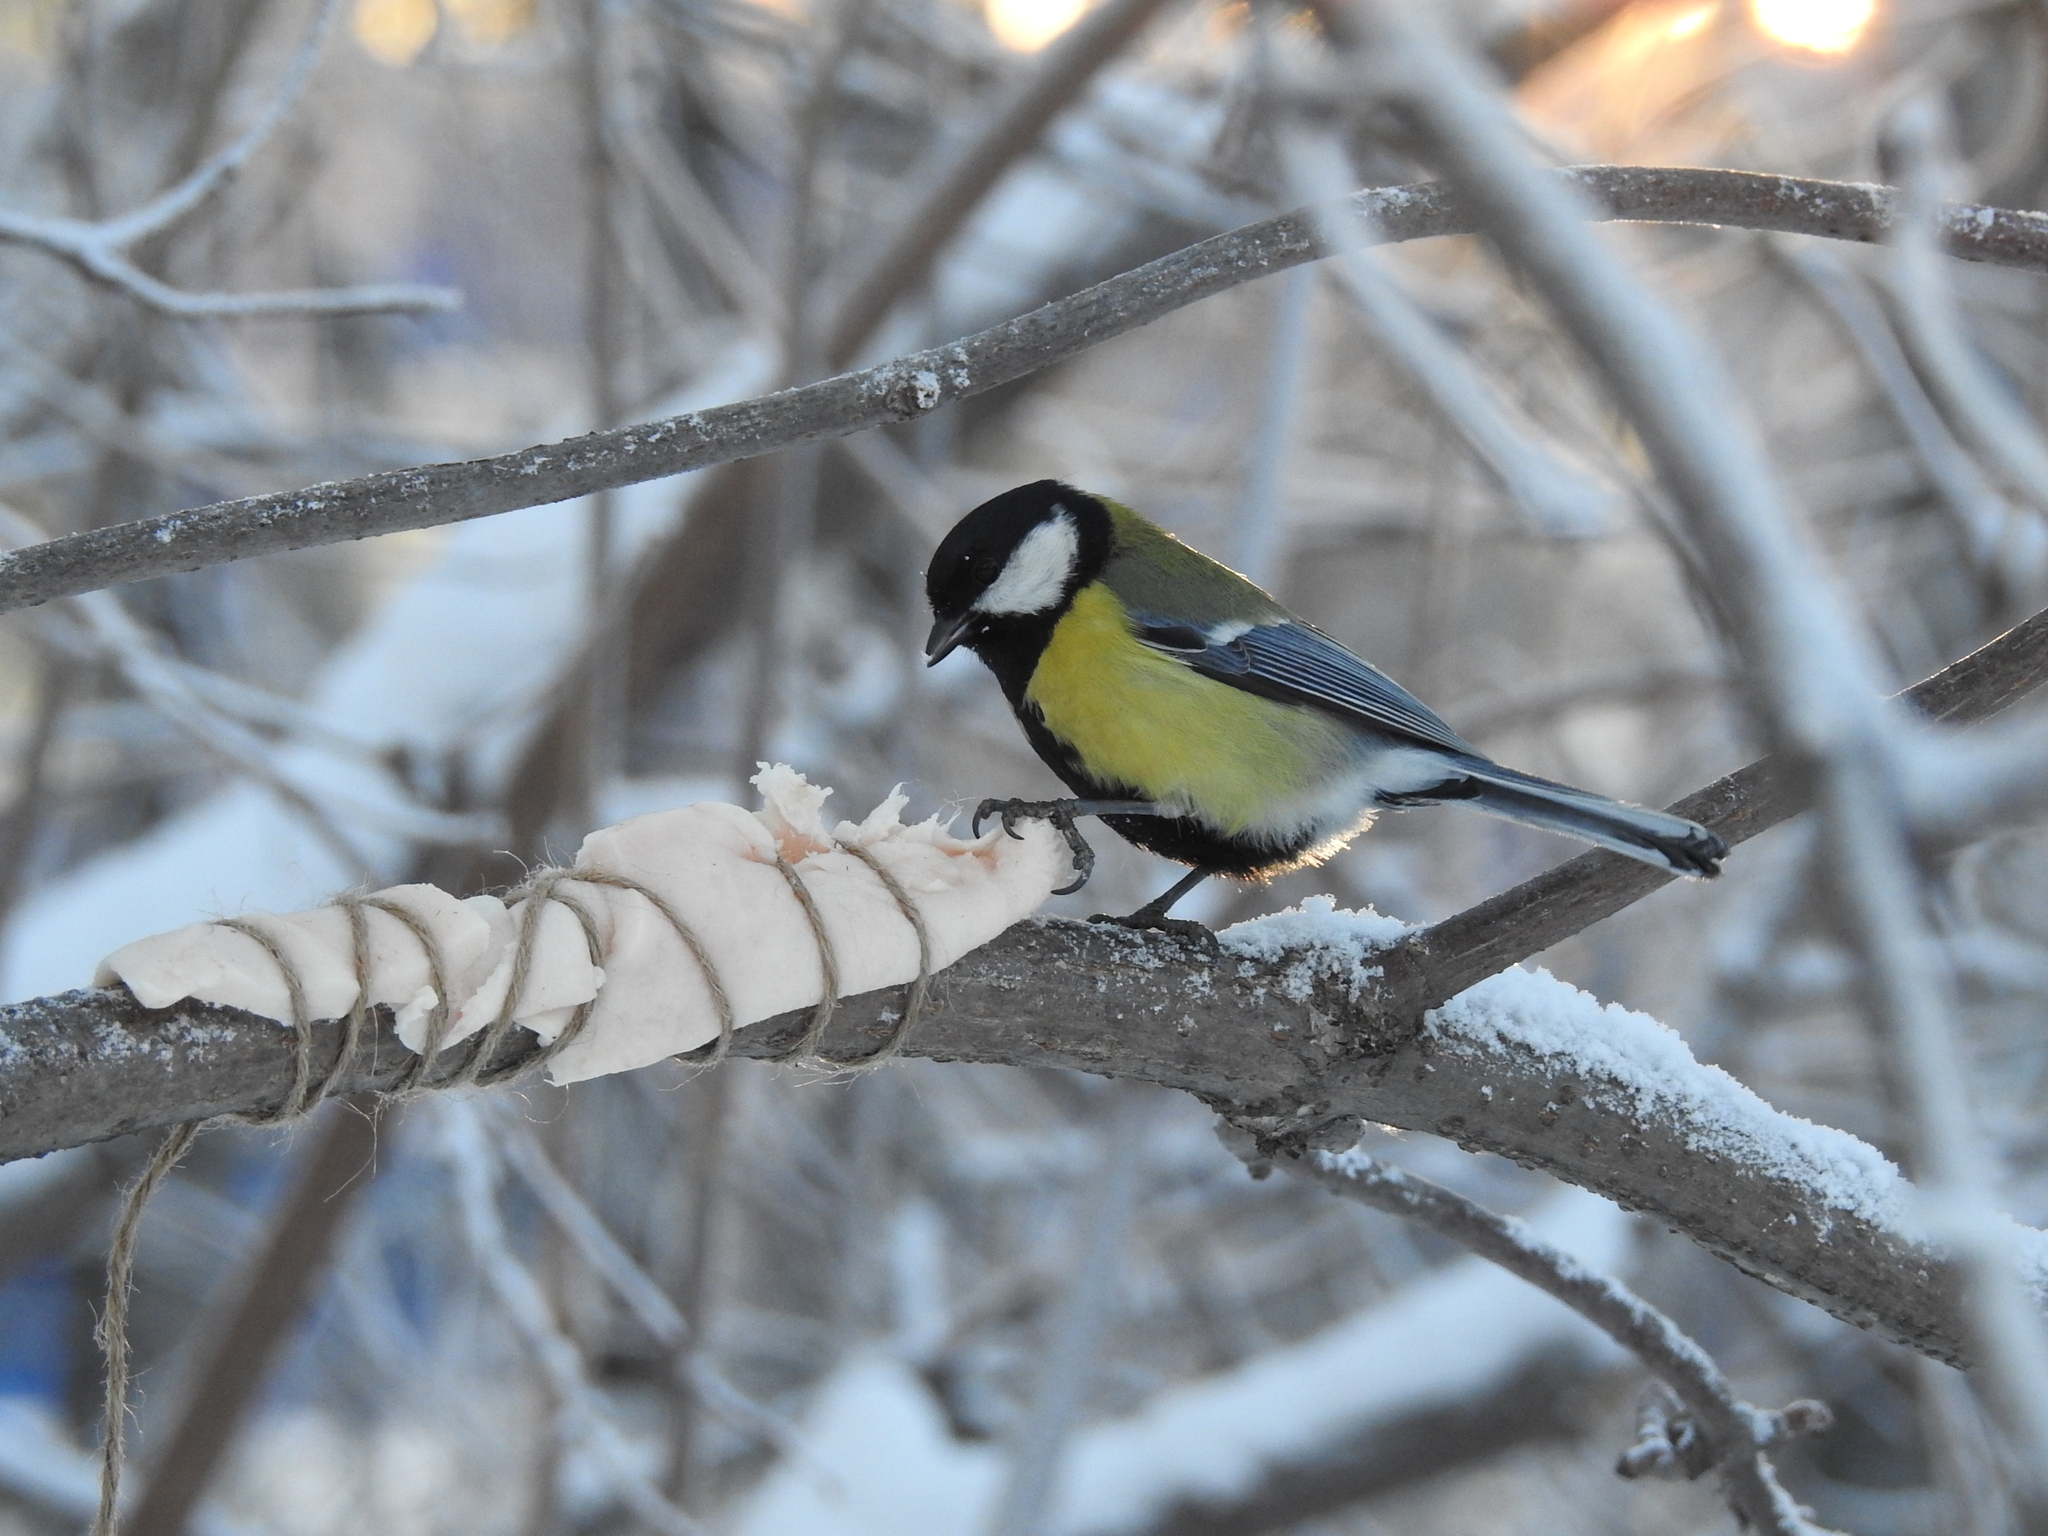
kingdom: Animalia
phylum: Chordata
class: Aves
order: Passeriformes
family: Paridae
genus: Parus
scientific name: Parus major
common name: Great tit
